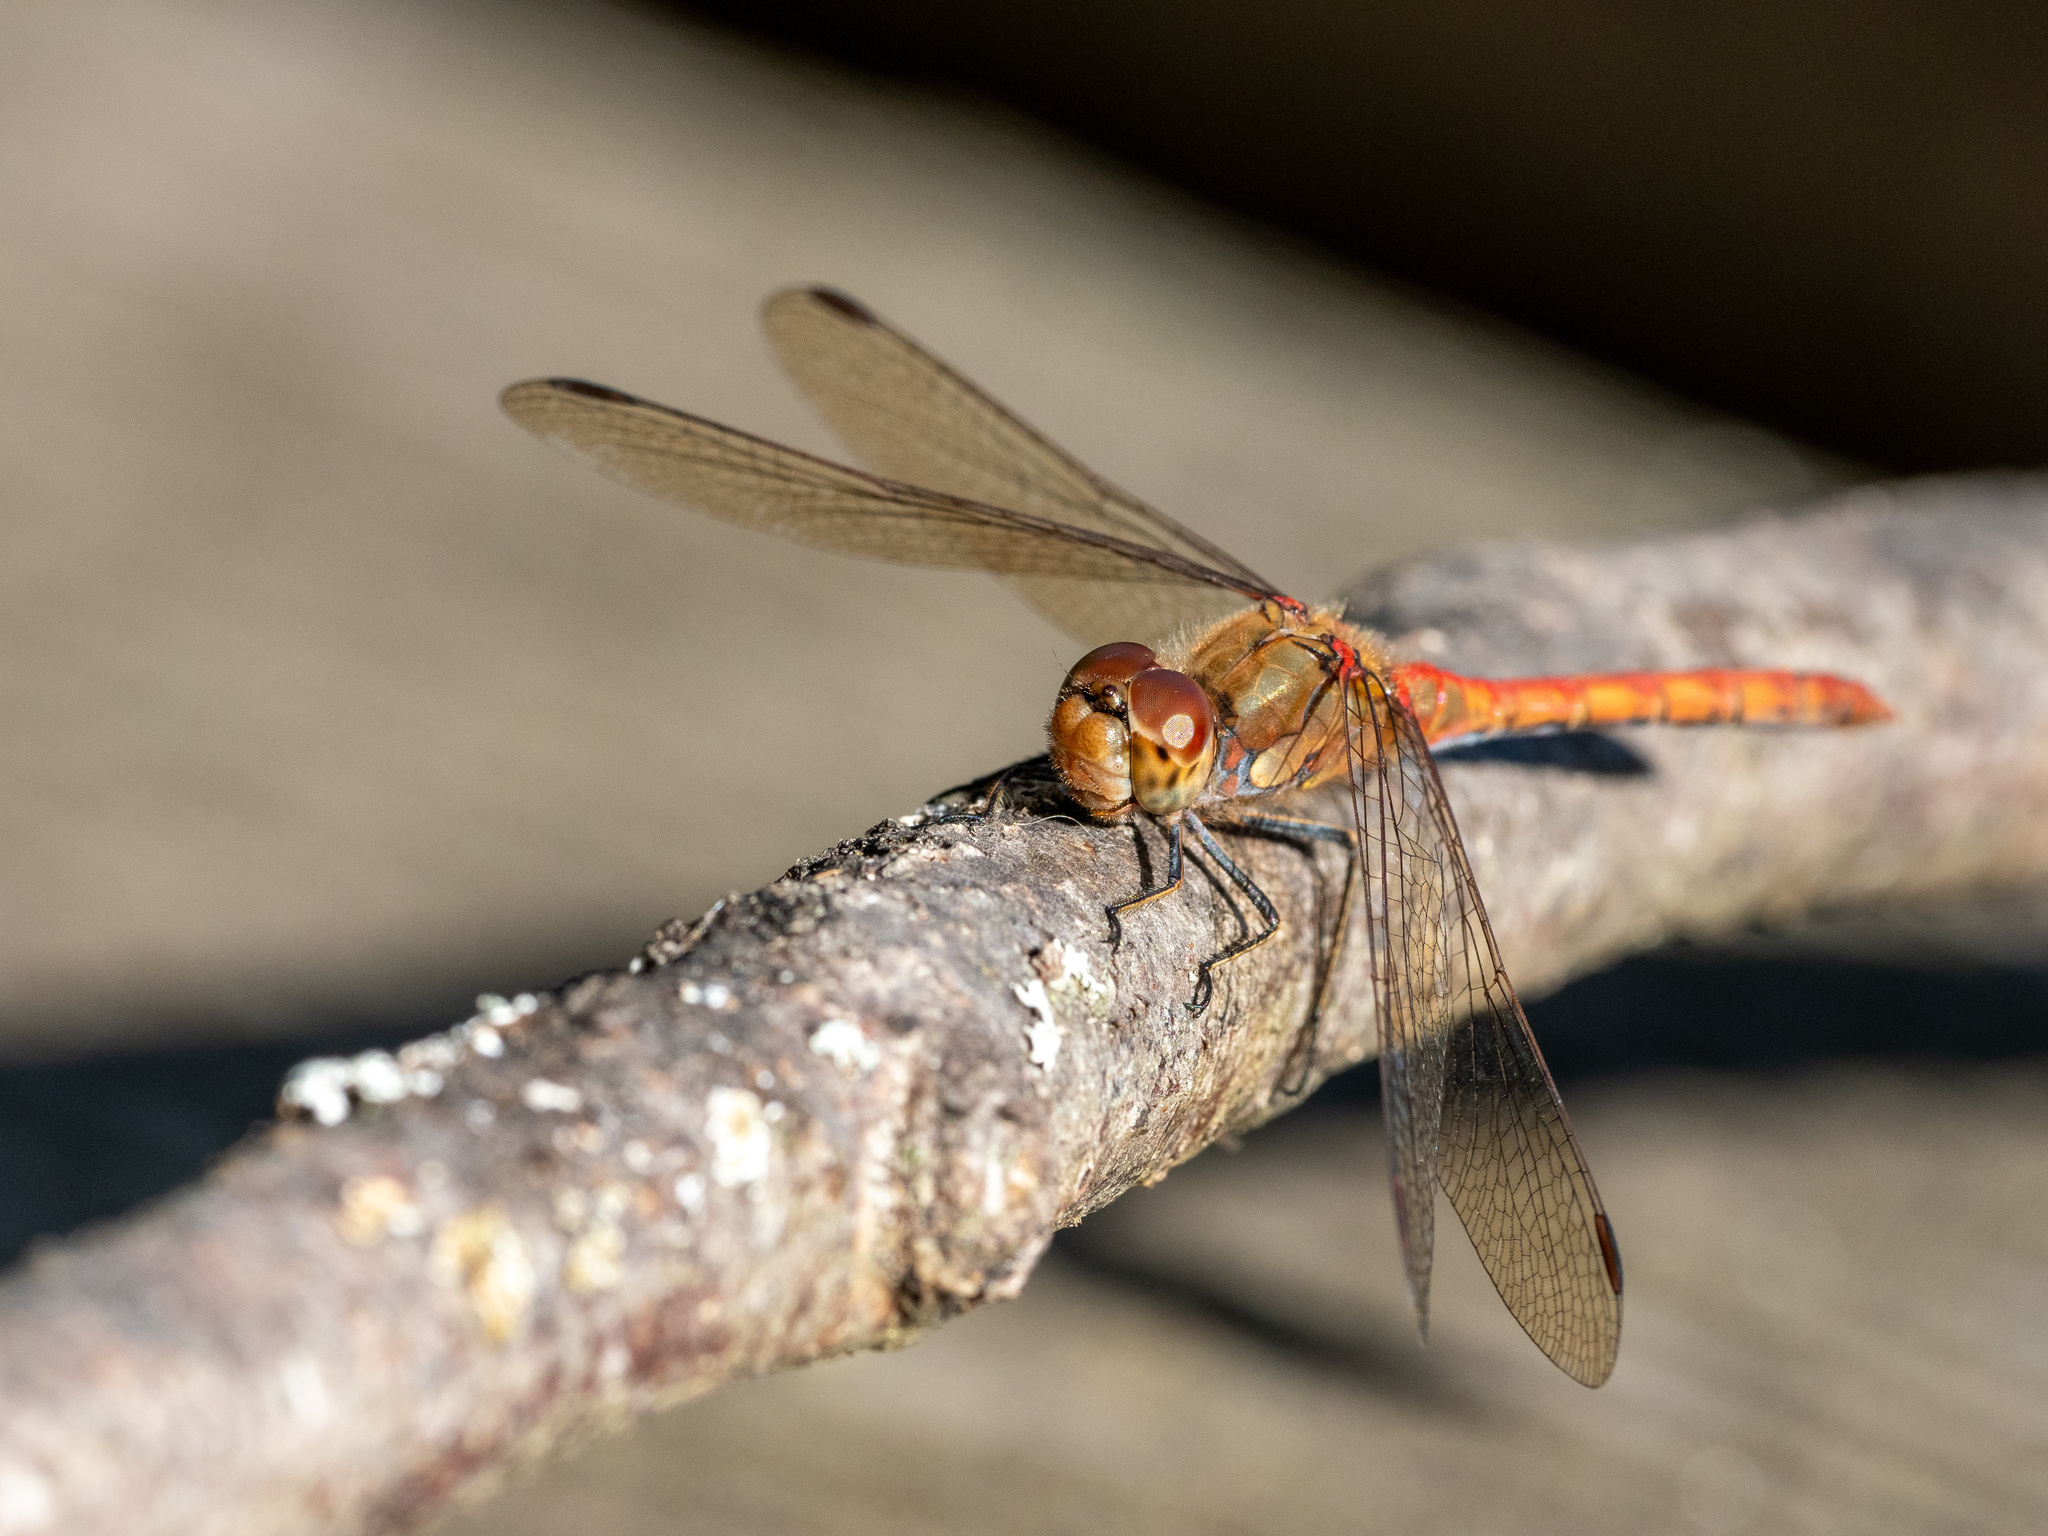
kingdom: Animalia
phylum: Arthropoda
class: Insecta
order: Odonata
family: Libellulidae
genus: Sympetrum
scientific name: Sympetrum striolatum
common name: Common darter
